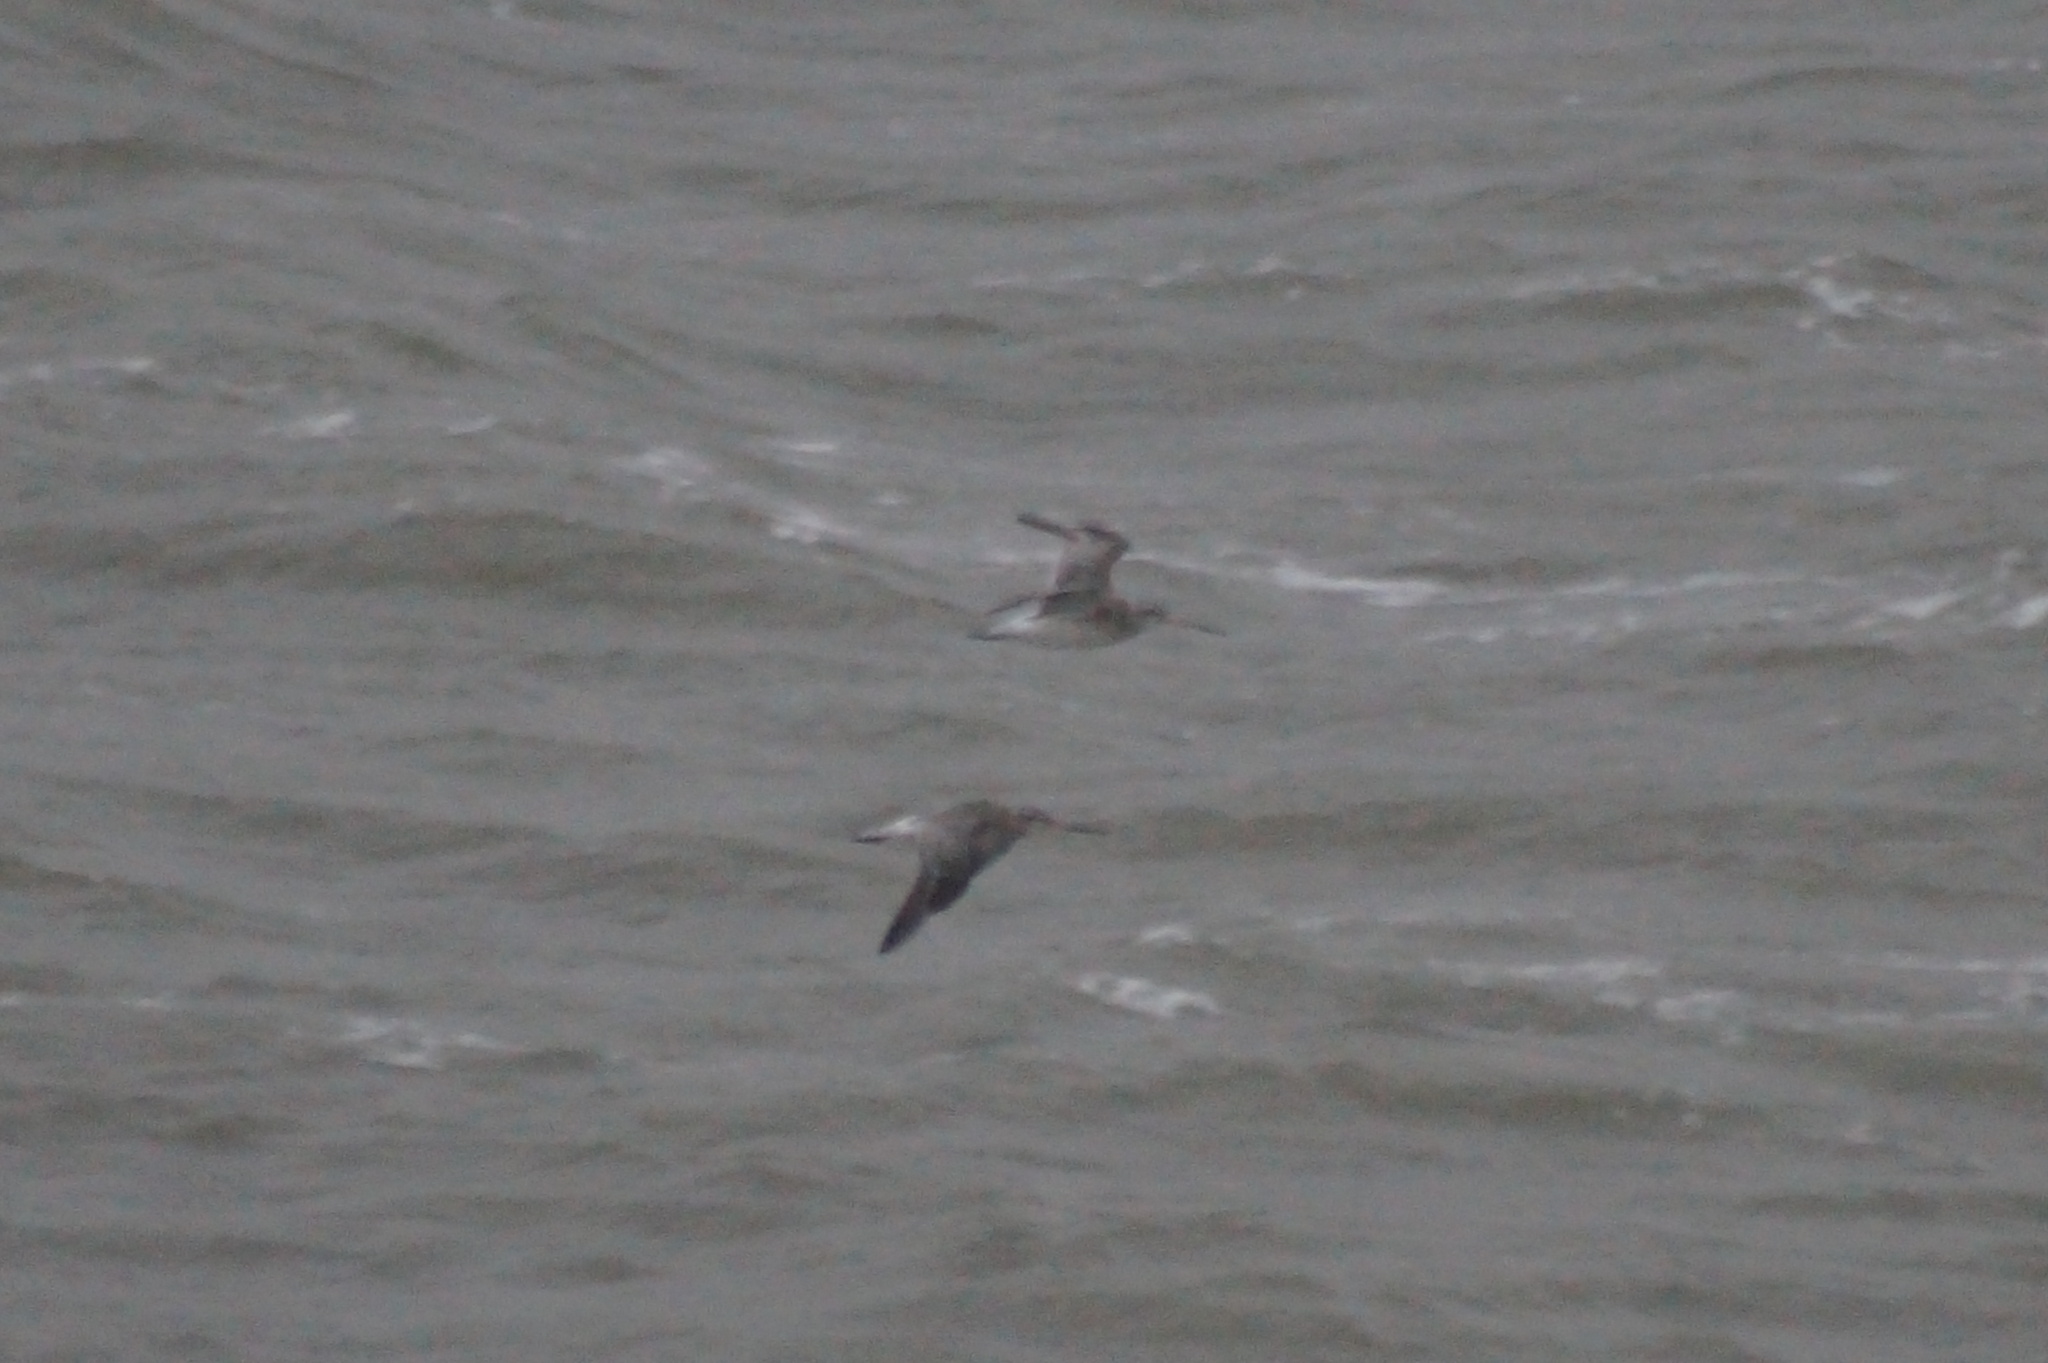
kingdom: Animalia
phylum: Chordata
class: Aves
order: Charadriiformes
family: Scolopacidae
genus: Limosa
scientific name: Limosa lapponica
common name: Bar-tailed godwit
